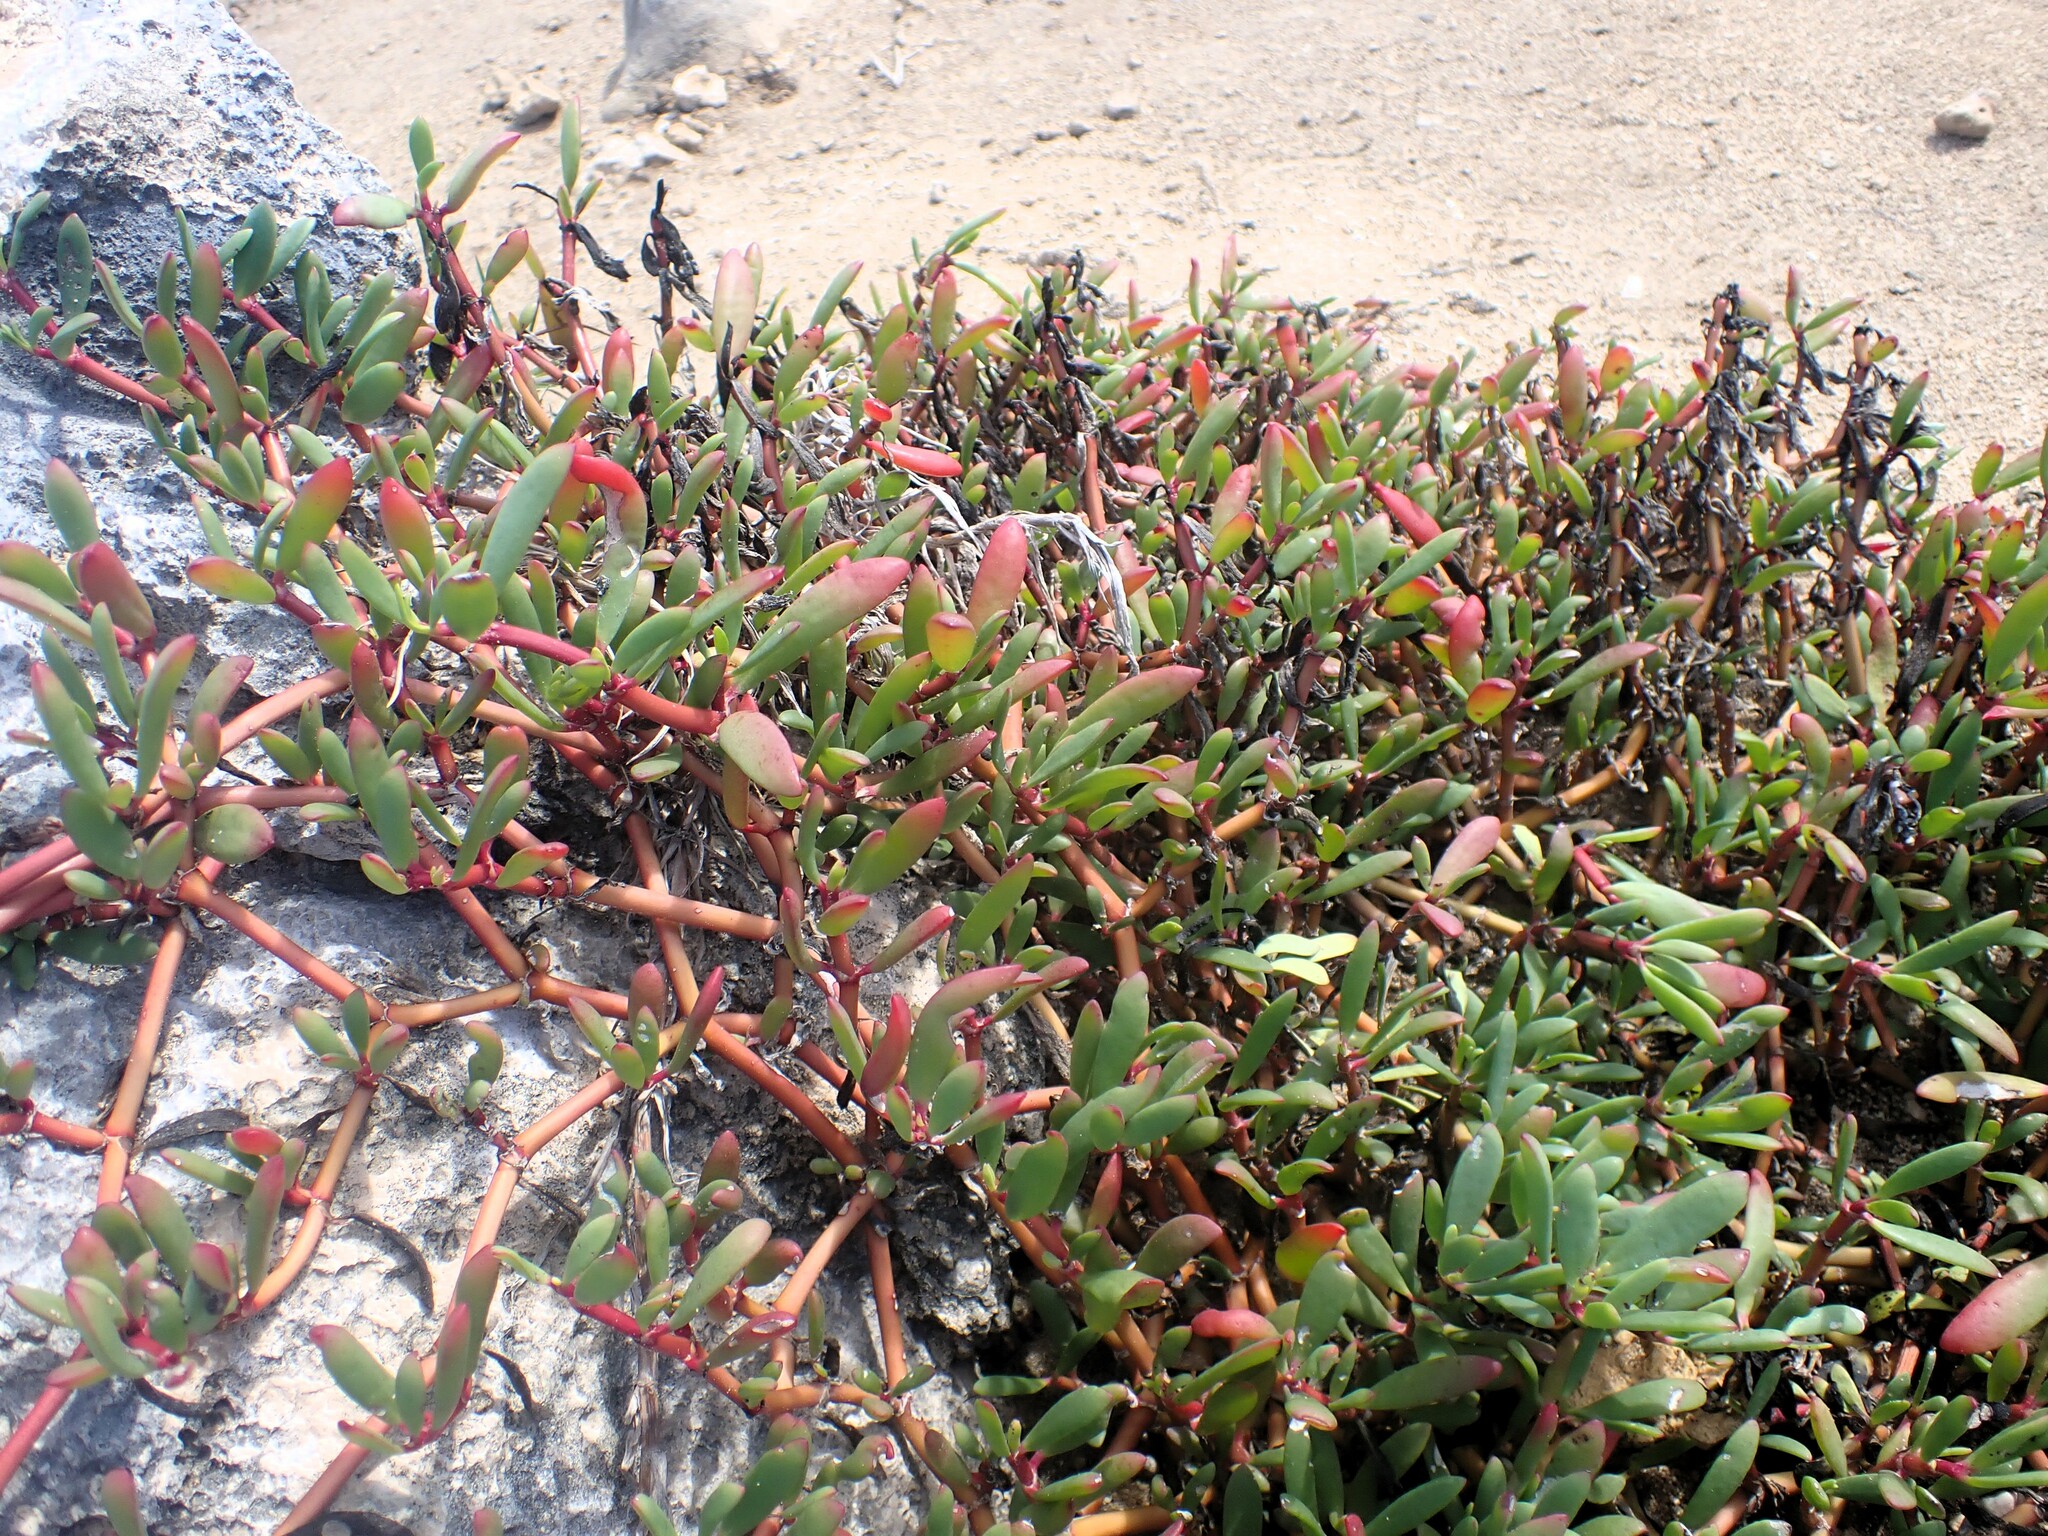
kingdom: Plantae
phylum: Tracheophyta
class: Magnoliopsida
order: Caryophyllales
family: Aizoaceae
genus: Sesuvium
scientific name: Sesuvium portulacastrum
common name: Sea-purslane
